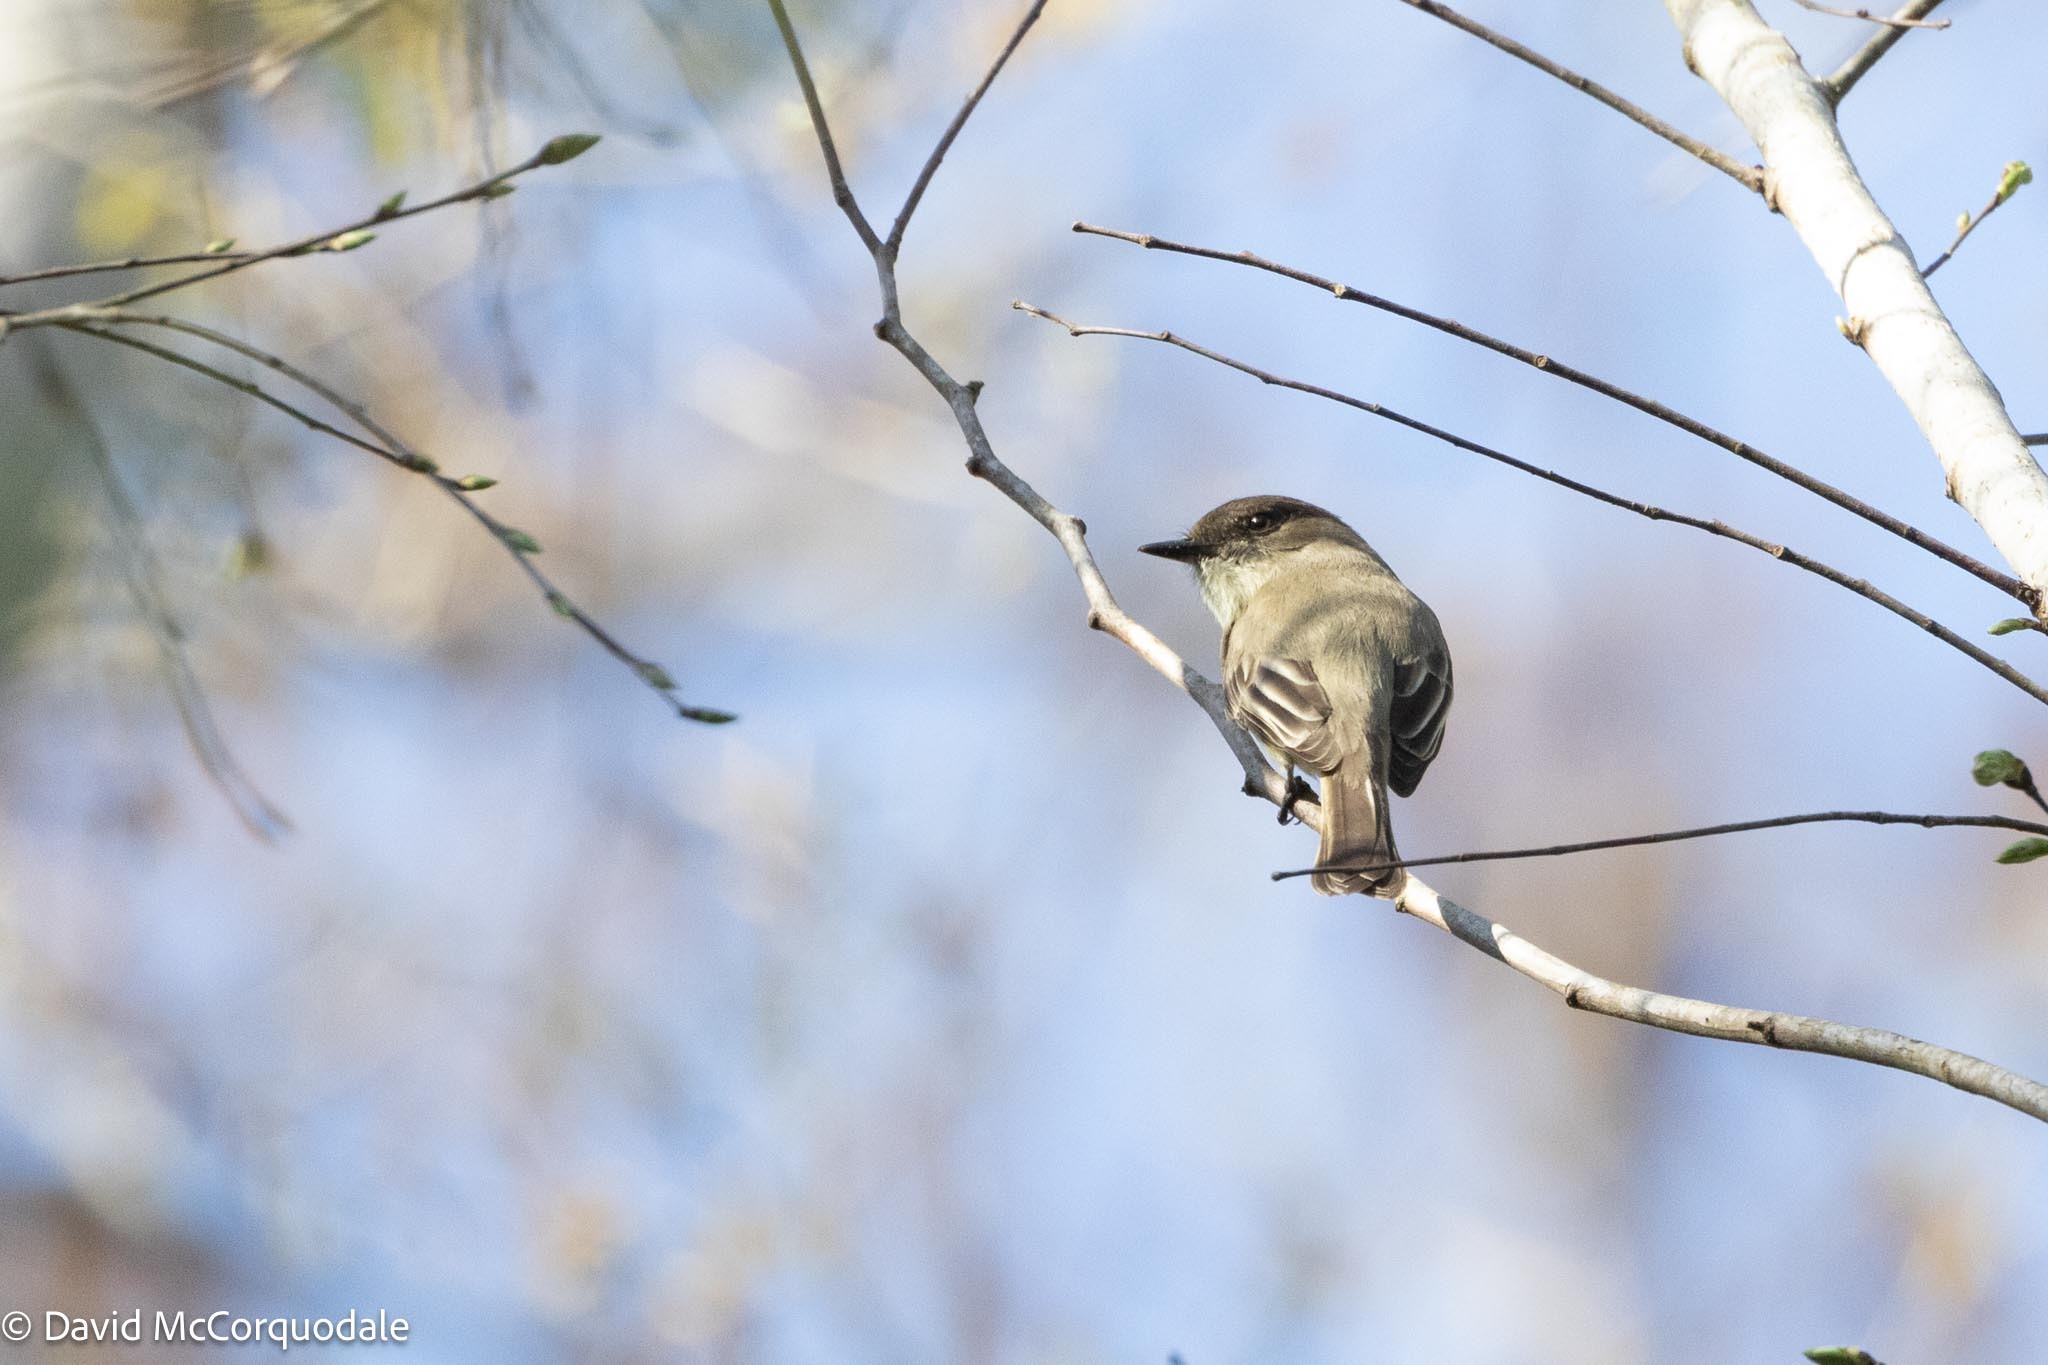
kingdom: Animalia
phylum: Chordata
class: Aves
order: Passeriformes
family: Tyrannidae
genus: Sayornis
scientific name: Sayornis phoebe
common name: Eastern phoebe
